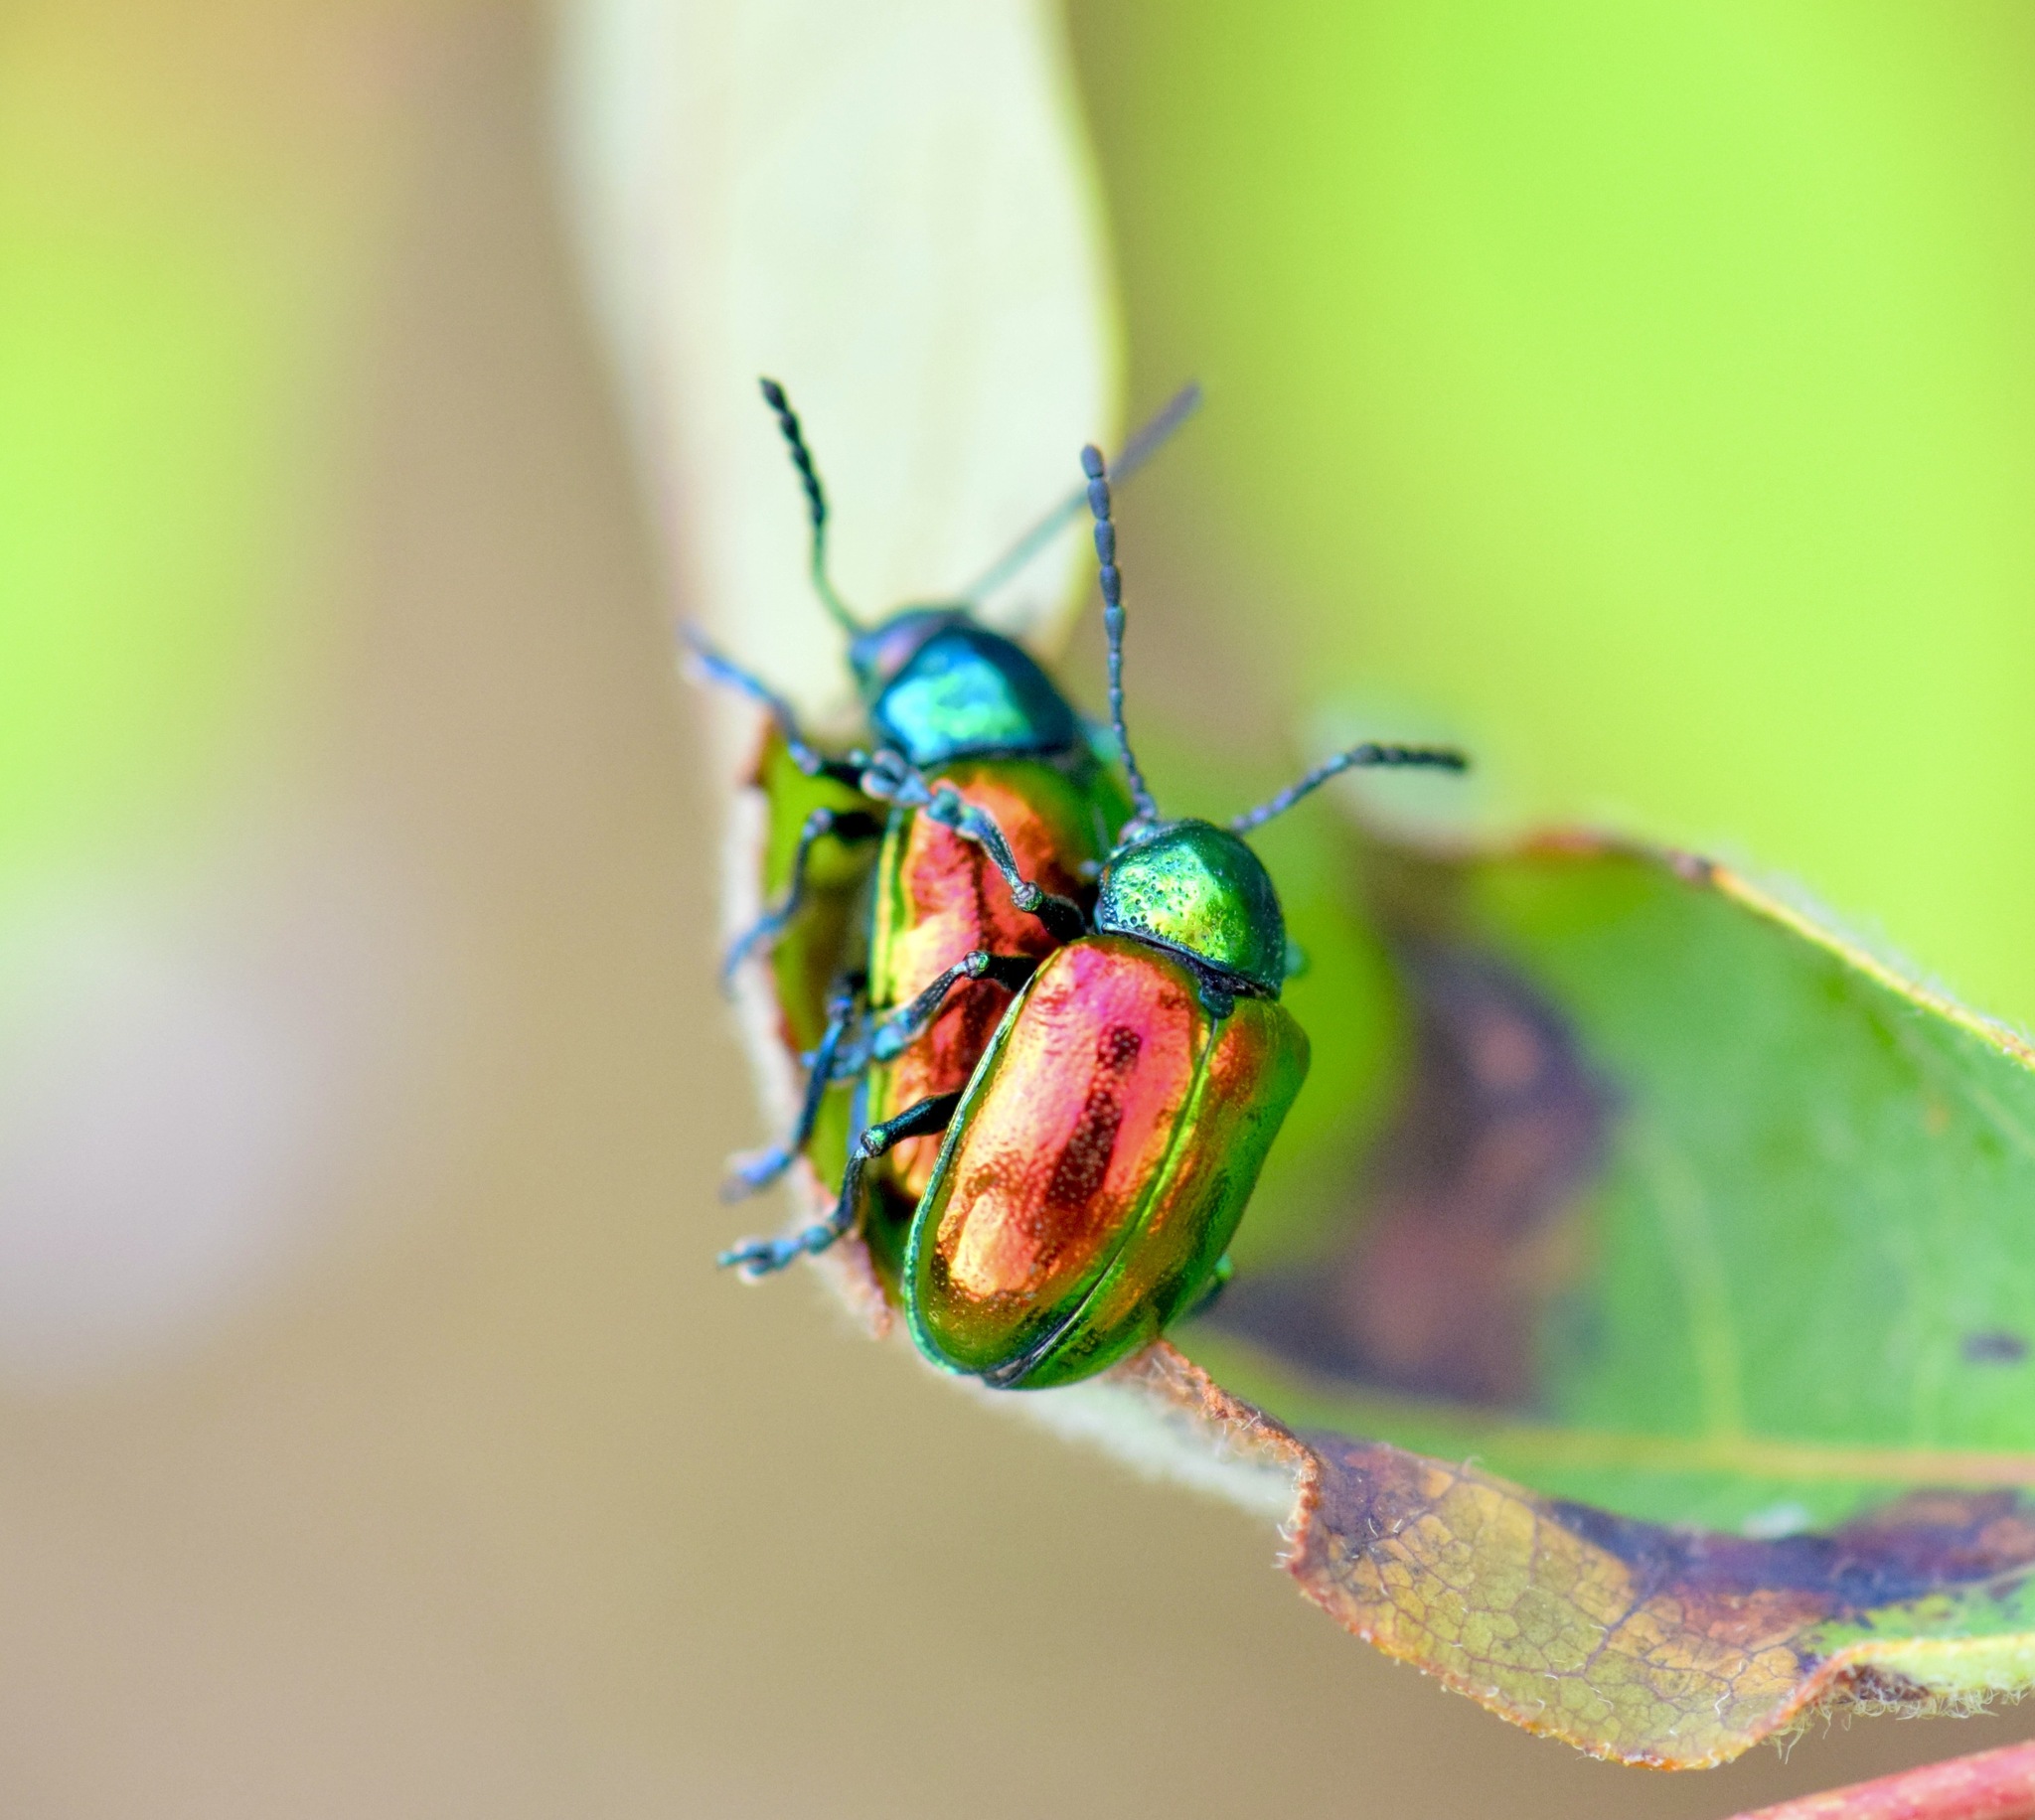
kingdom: Animalia
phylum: Arthropoda
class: Insecta
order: Coleoptera
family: Chrysomelidae
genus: Chrysochus
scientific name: Chrysochus auratus
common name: Dogbane leaf beetle
